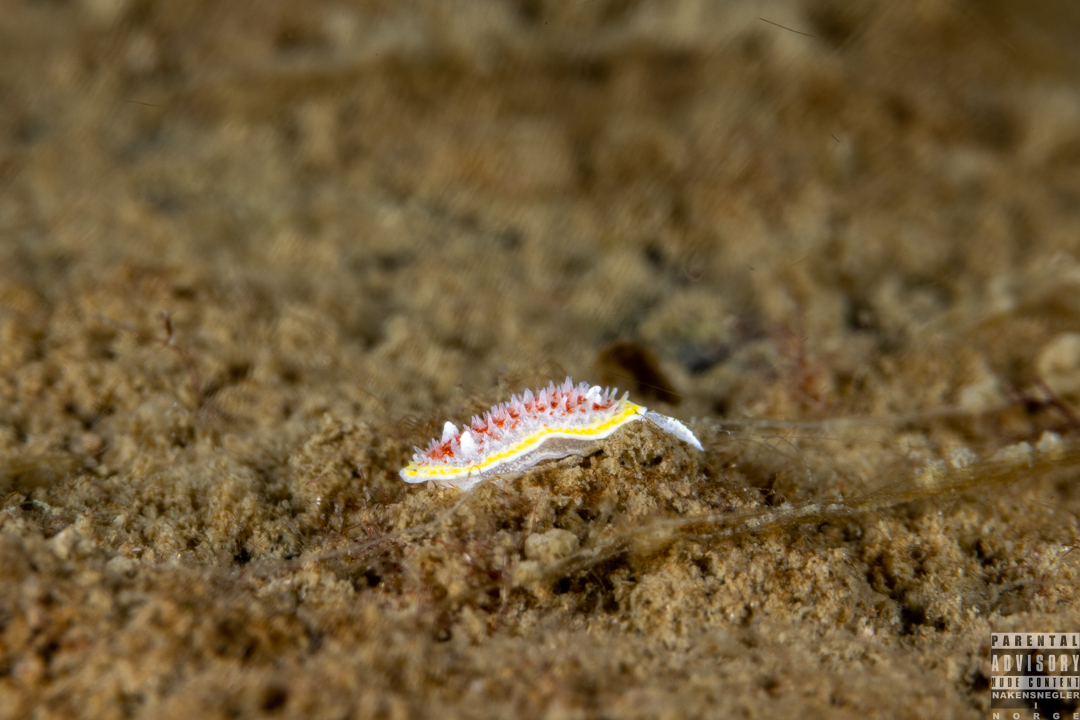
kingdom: Animalia
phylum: Mollusca
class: Gastropoda
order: Nudibranchia
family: Calycidorididae
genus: Diaphorodoris
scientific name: Diaphorodoris luteocincta
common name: Fried egg nudibranch
